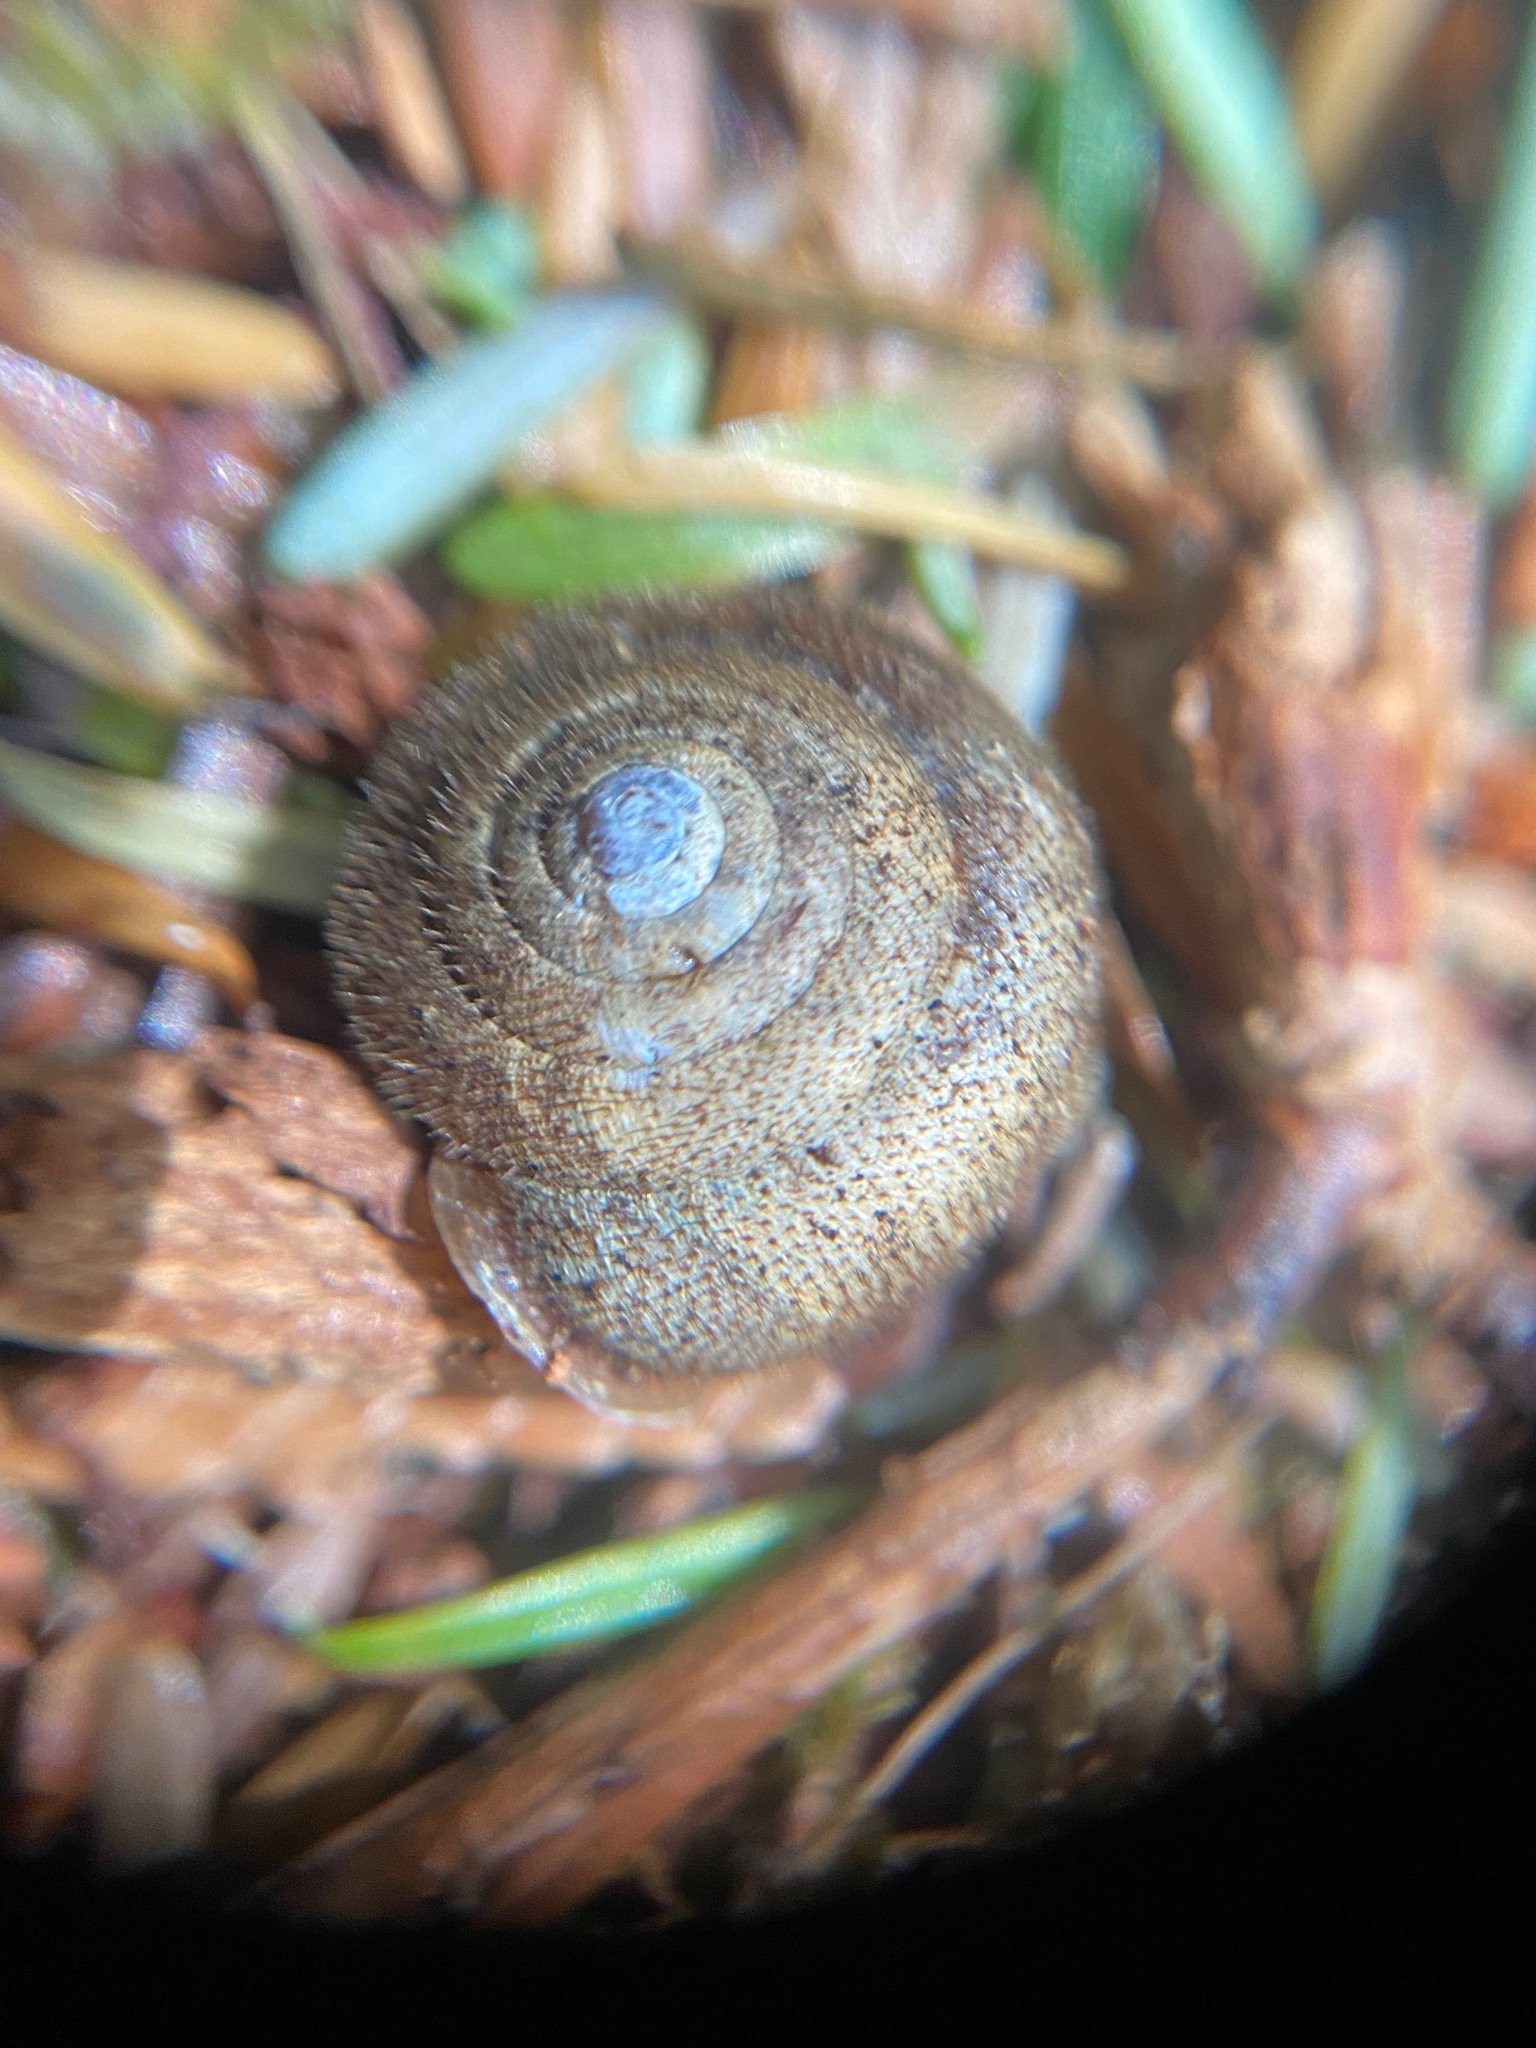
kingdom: Animalia
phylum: Mollusca
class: Gastropoda
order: Stylommatophora
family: Polygyridae
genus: Vespericola
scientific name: Vespericola columbianus
